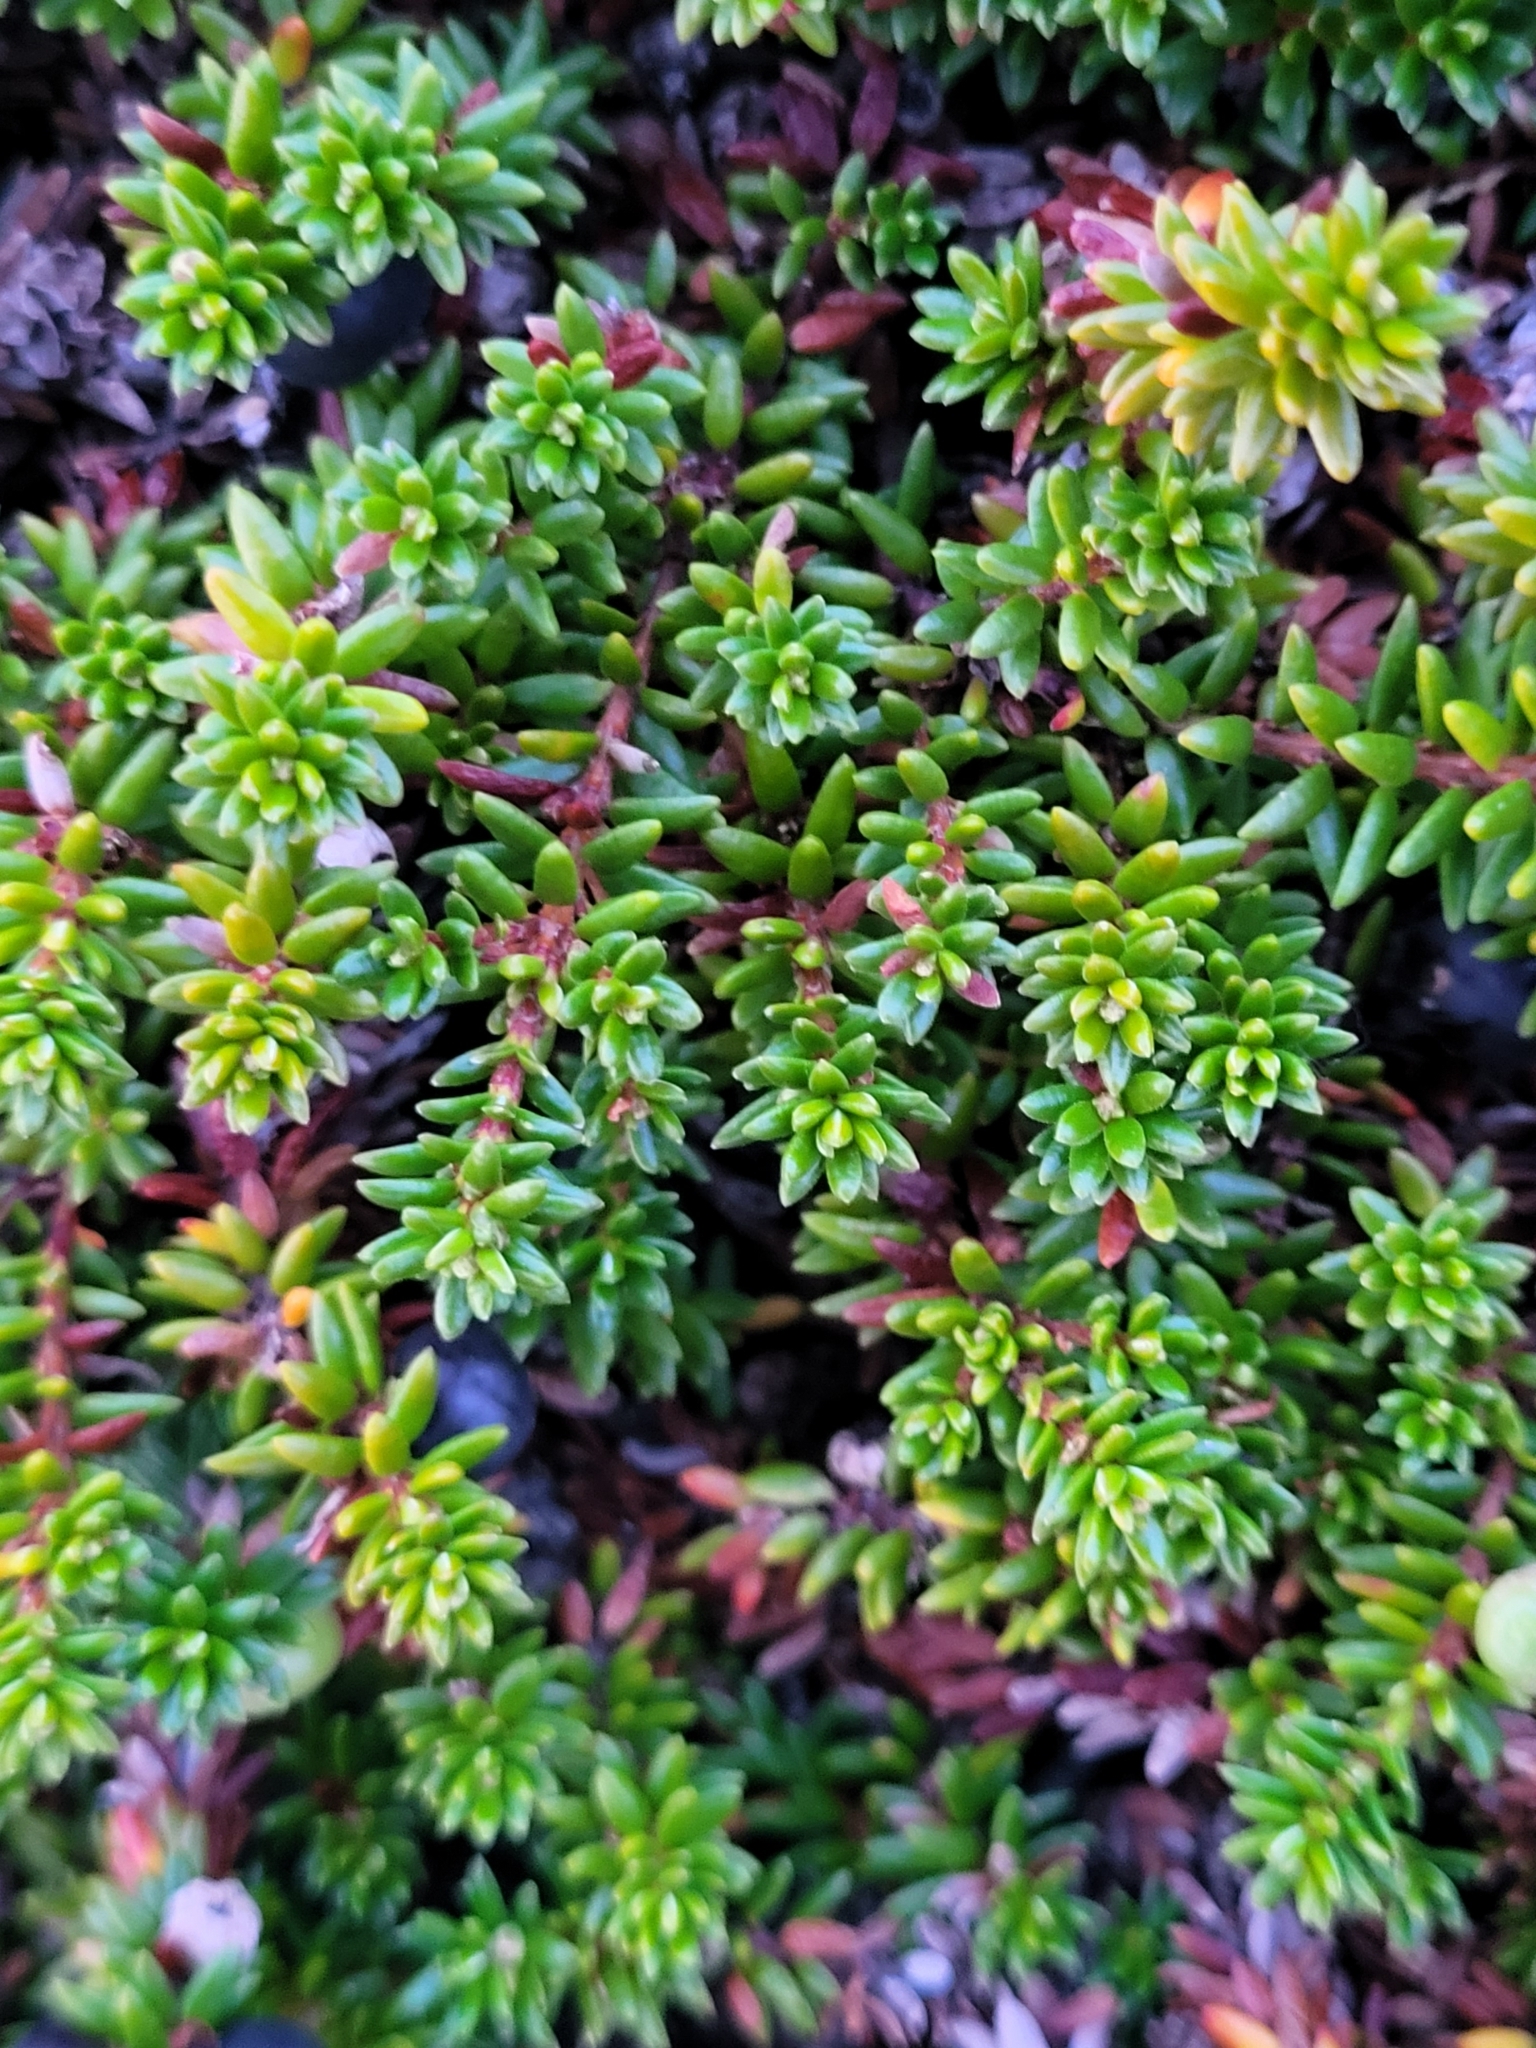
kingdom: Plantae
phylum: Tracheophyta
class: Magnoliopsida
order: Ericales
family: Ericaceae
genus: Empetrum
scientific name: Empetrum hermaphroditum
